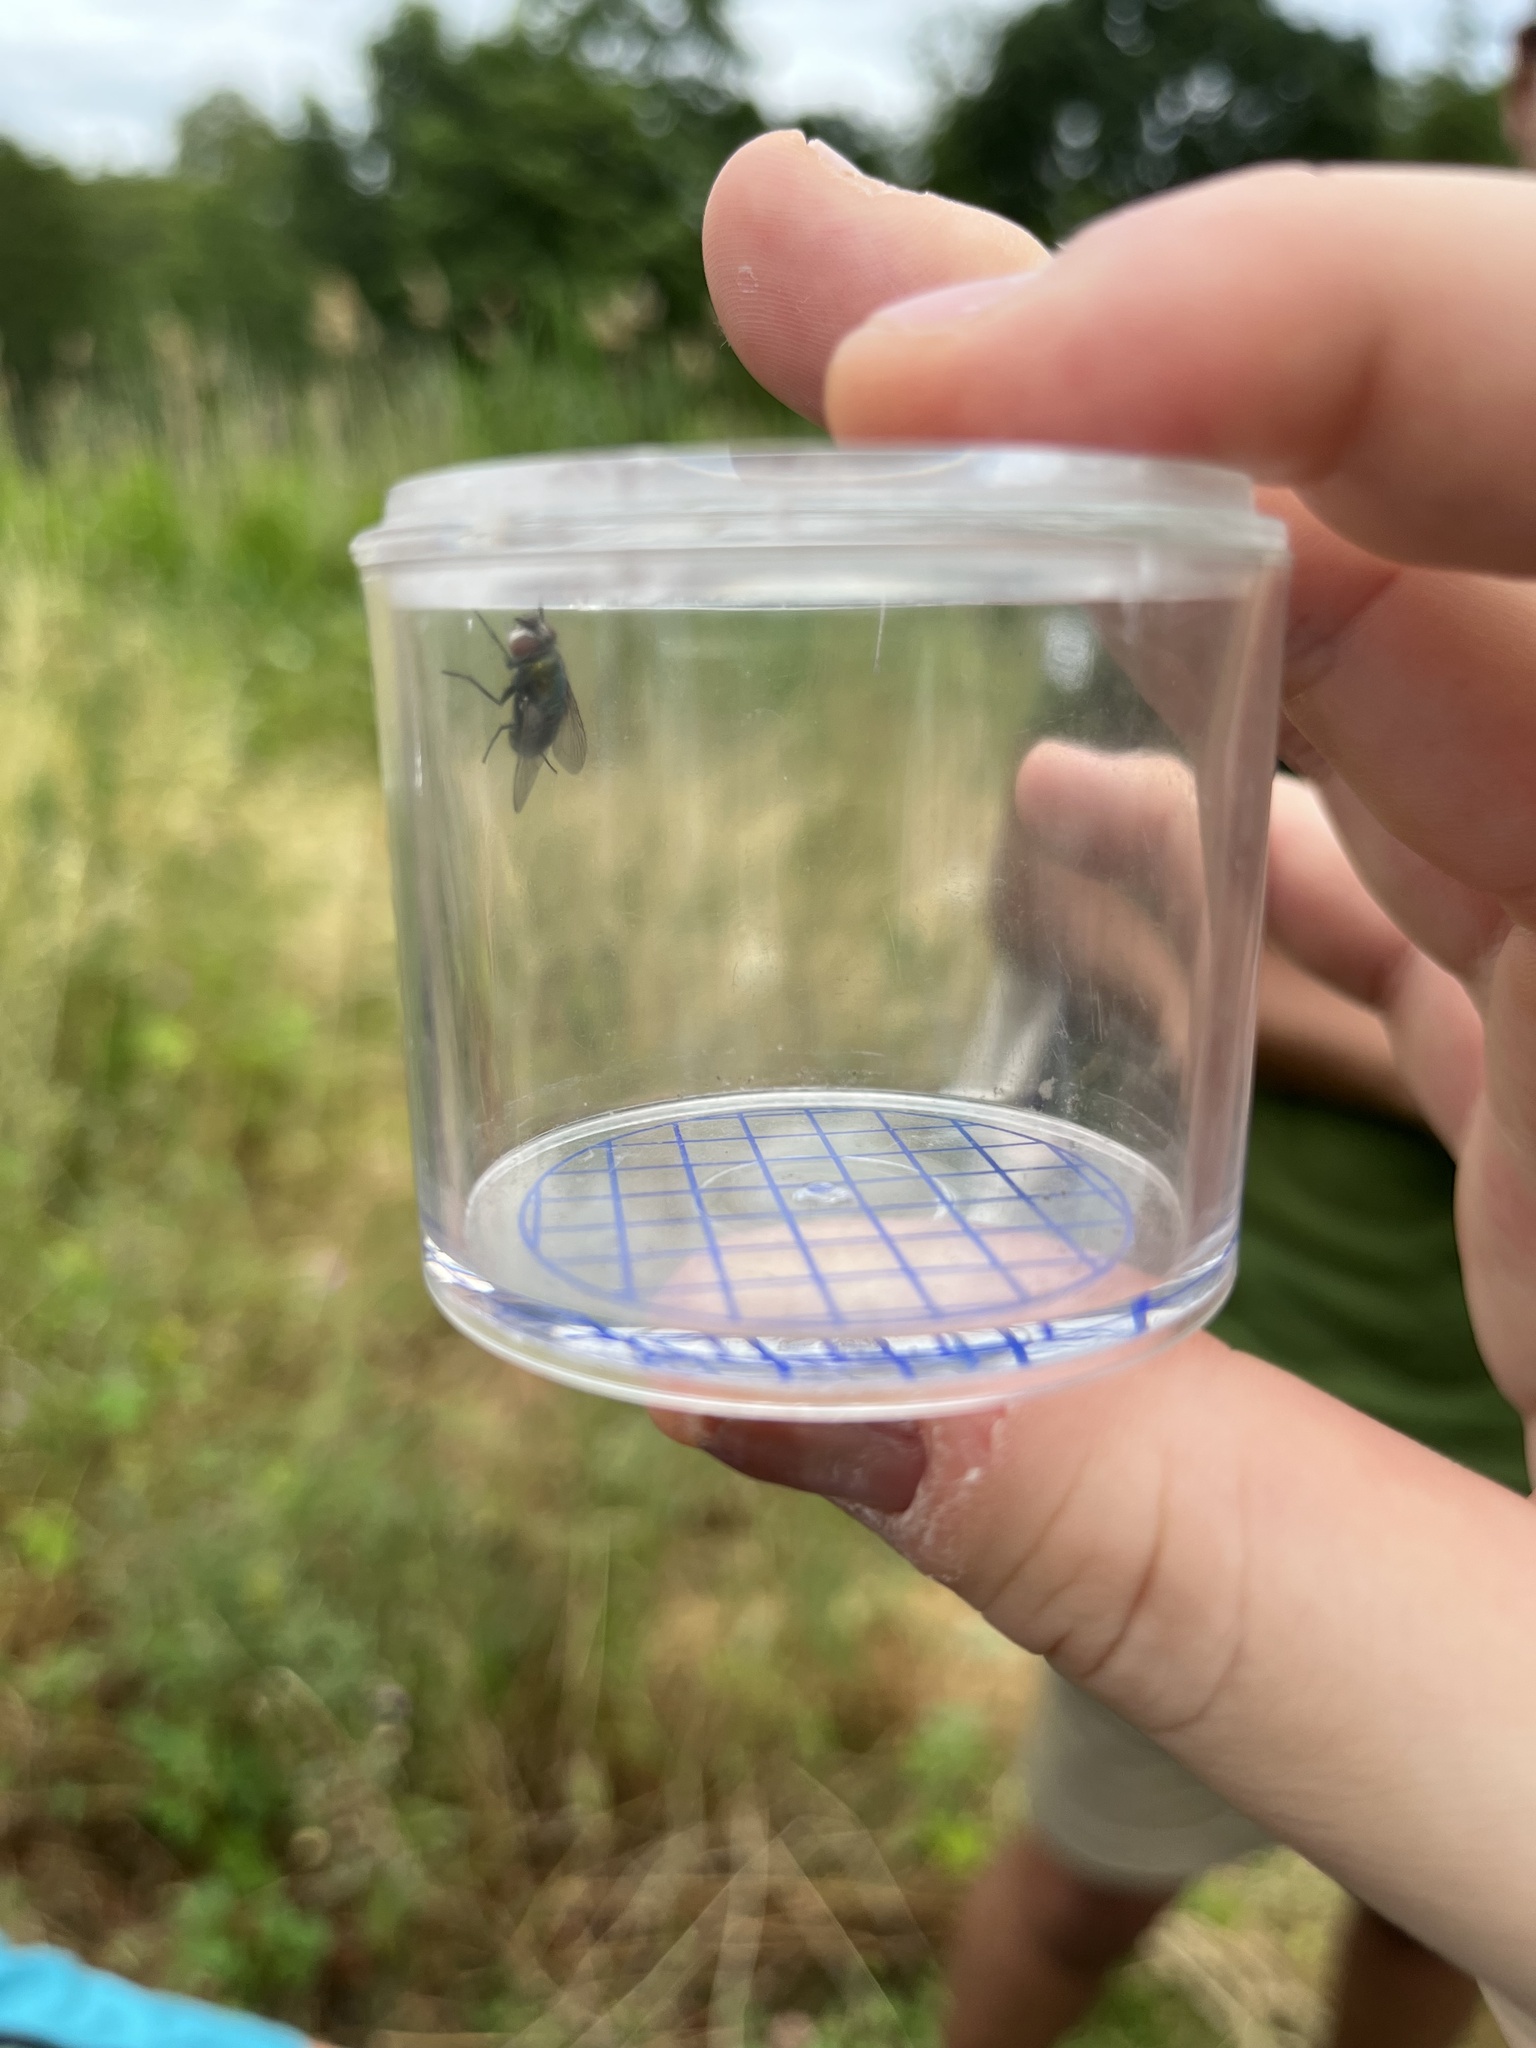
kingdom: Animalia
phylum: Arthropoda
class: Insecta
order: Diptera
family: Calliphoridae
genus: Lucilia
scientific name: Lucilia
